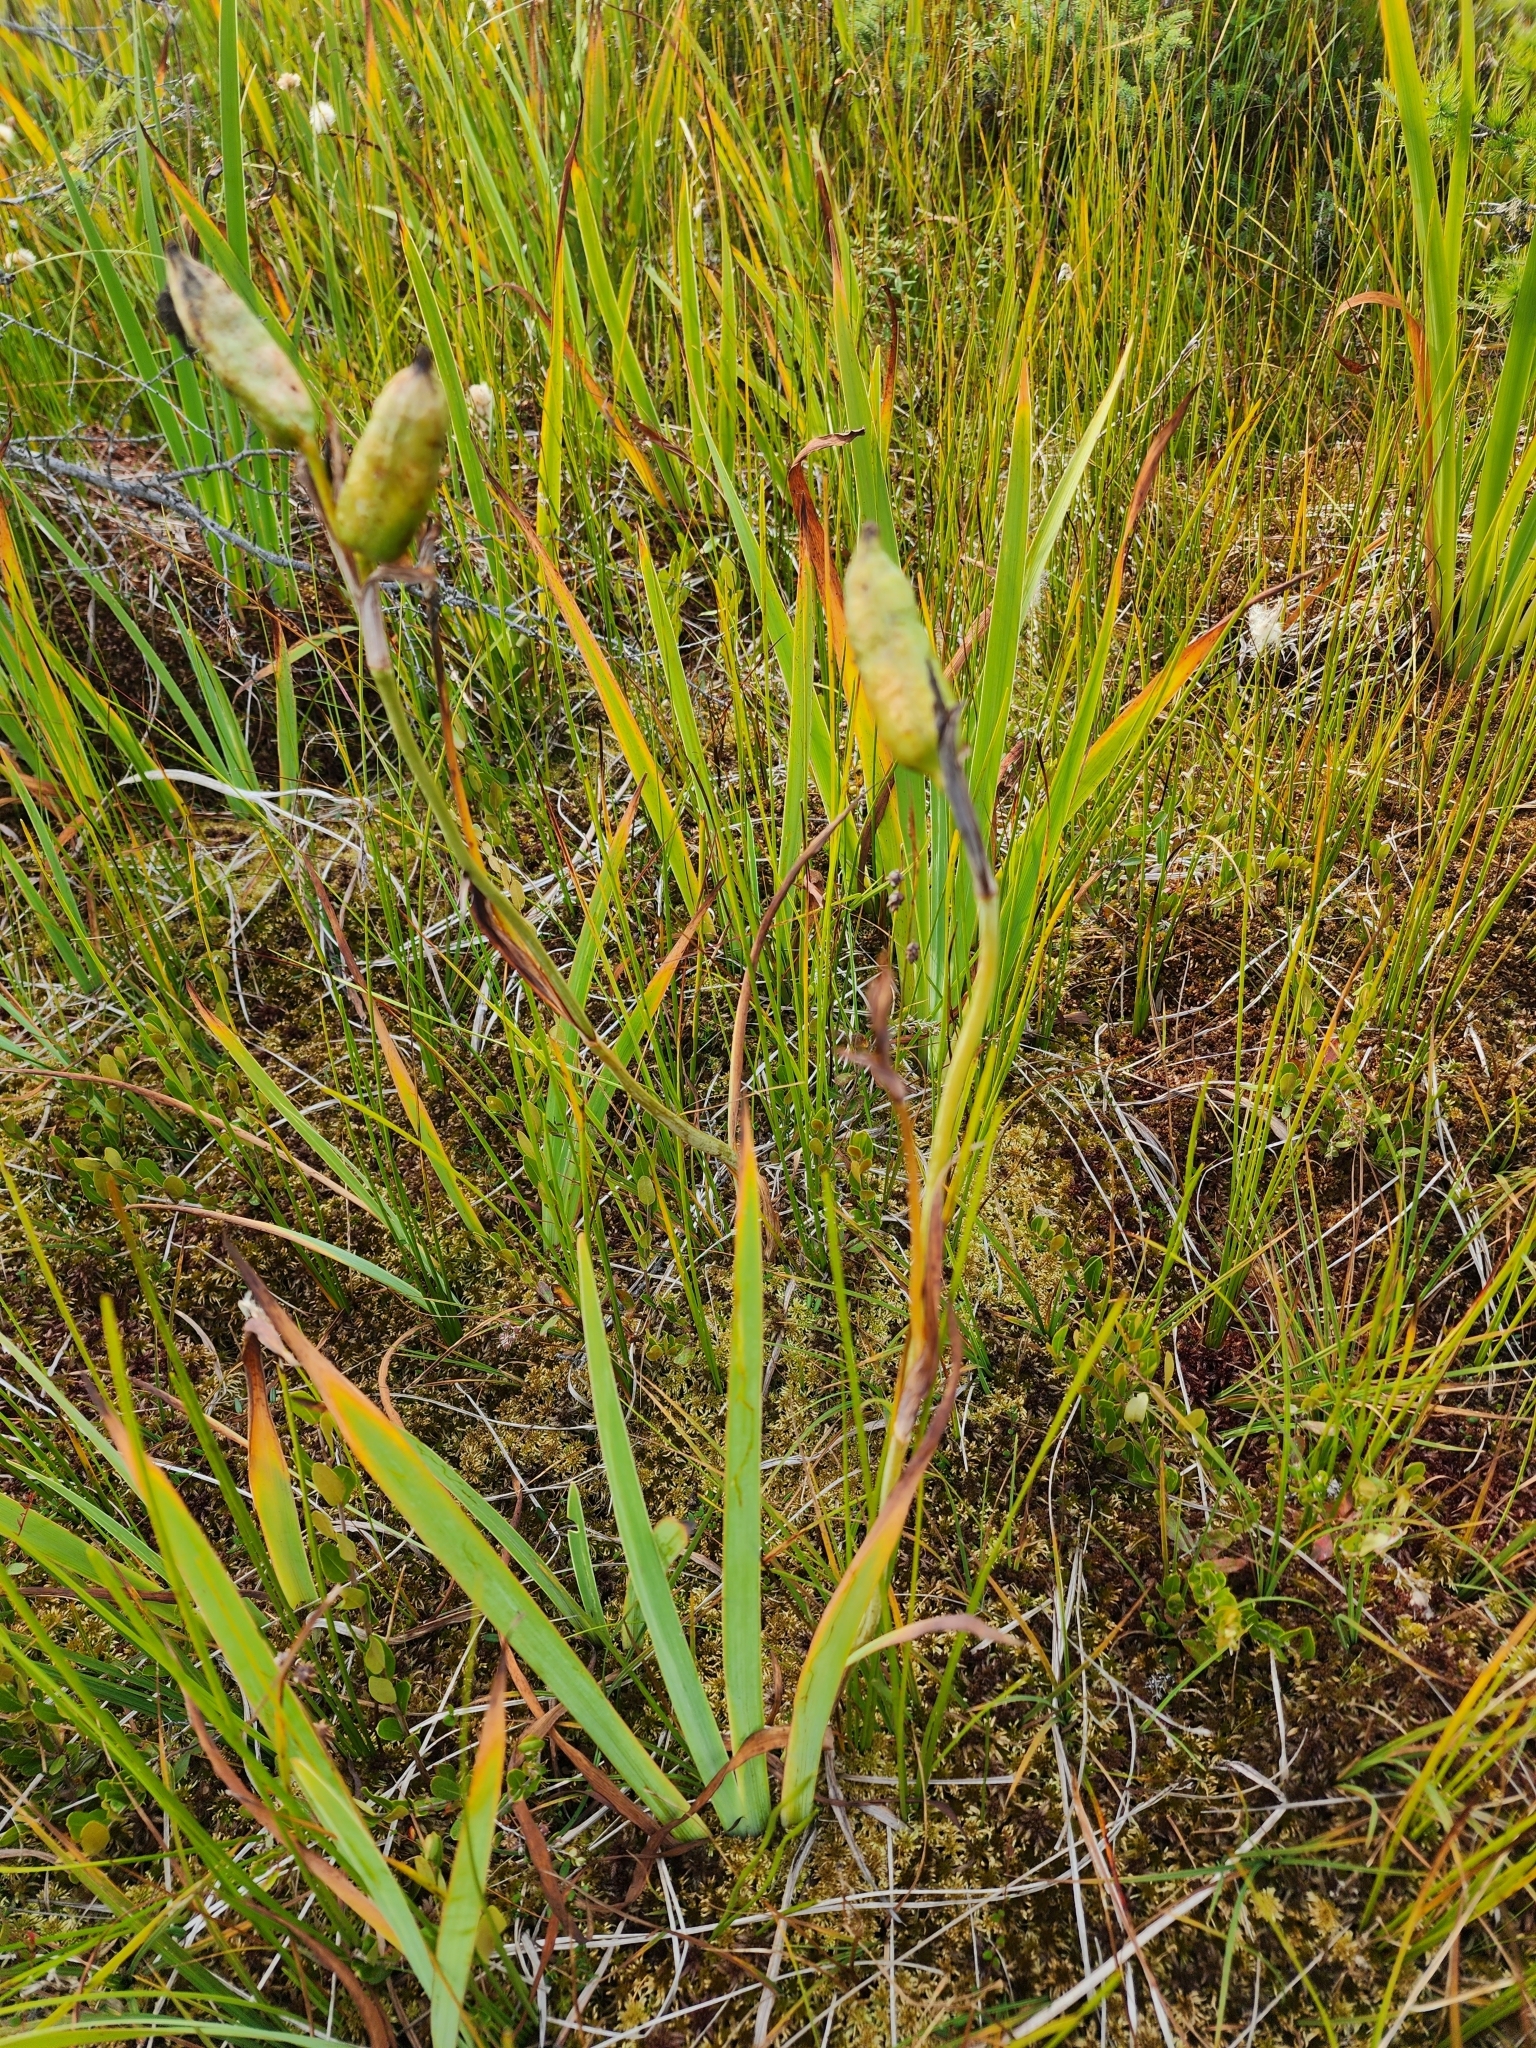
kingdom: Plantae
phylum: Tracheophyta
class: Liliopsida
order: Asparagales
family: Iridaceae
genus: Iris
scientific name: Iris versicolor
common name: Purple iris
